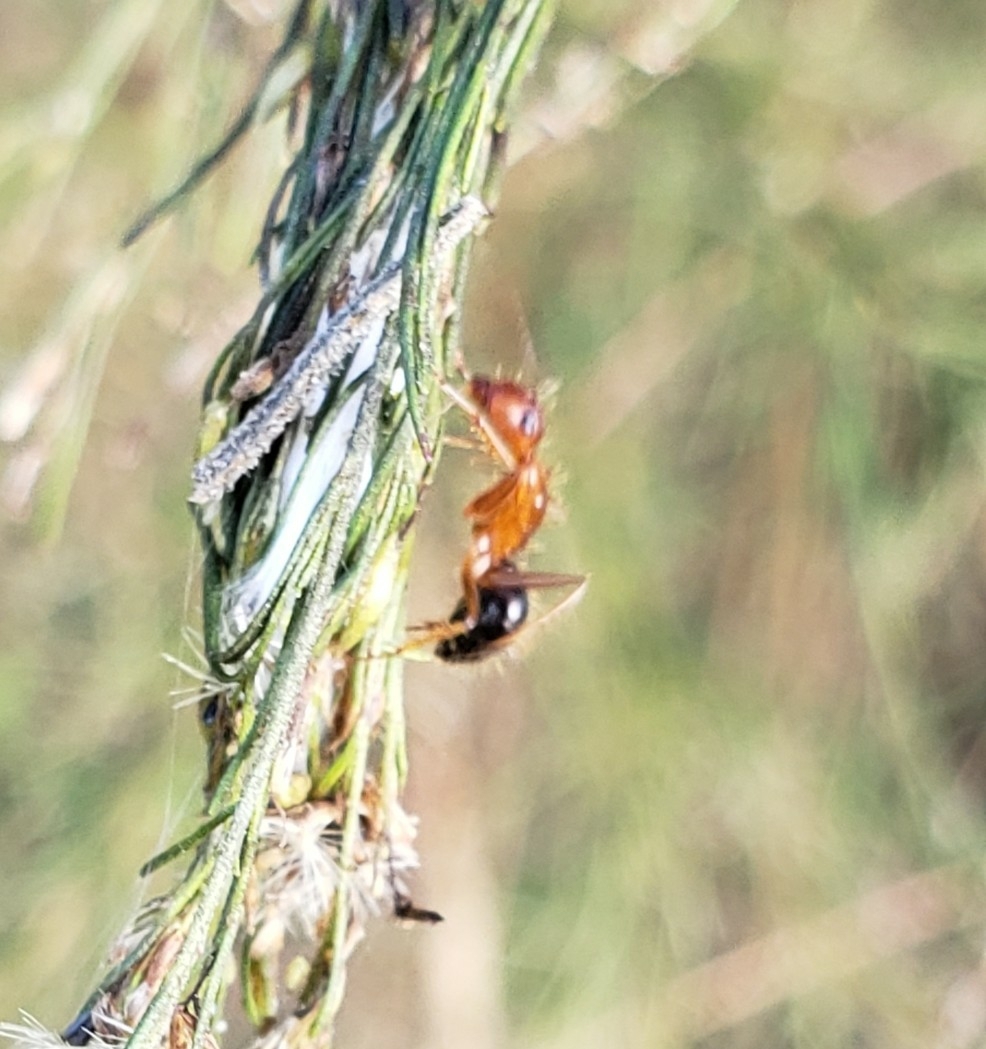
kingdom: Animalia
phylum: Arthropoda
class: Insecta
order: Hymenoptera
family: Formicidae
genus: Camponotus
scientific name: Camponotus floridanus
